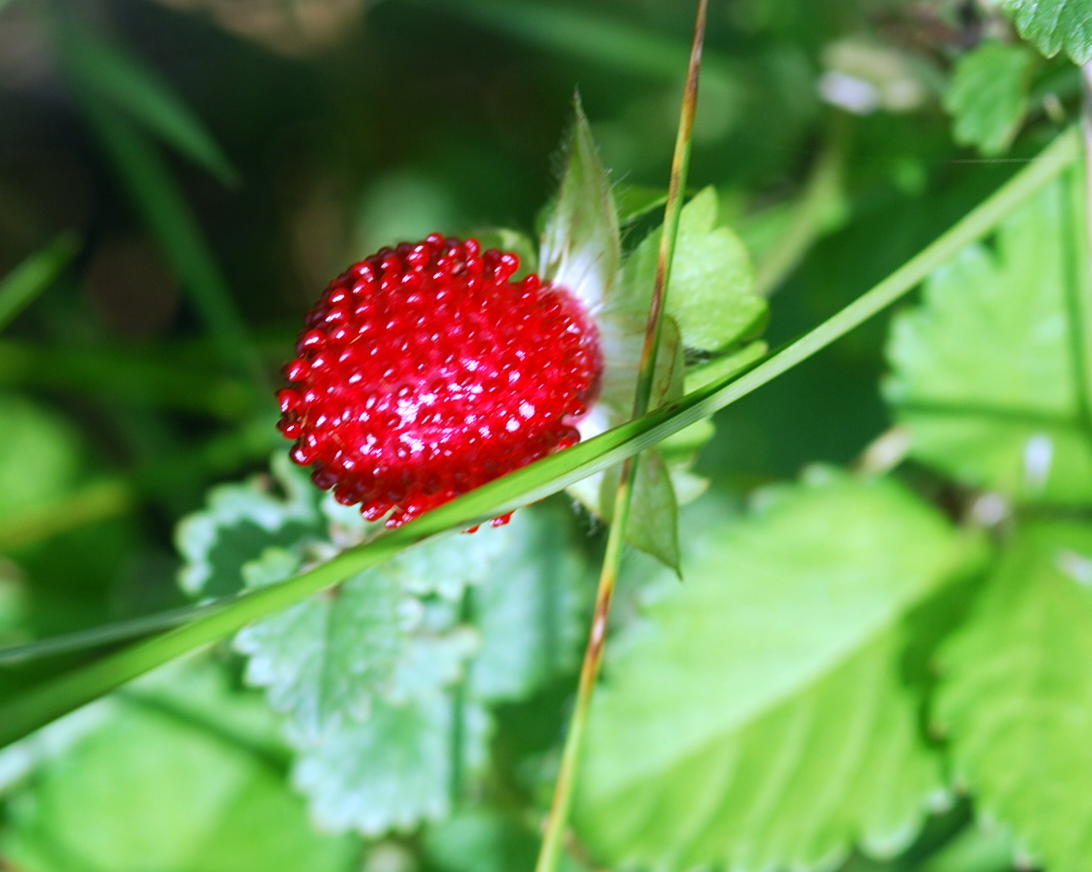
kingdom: Plantae
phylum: Tracheophyta
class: Magnoliopsida
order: Rosales
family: Rosaceae
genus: Potentilla
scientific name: Potentilla indica
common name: Yellow-flowered strawberry
